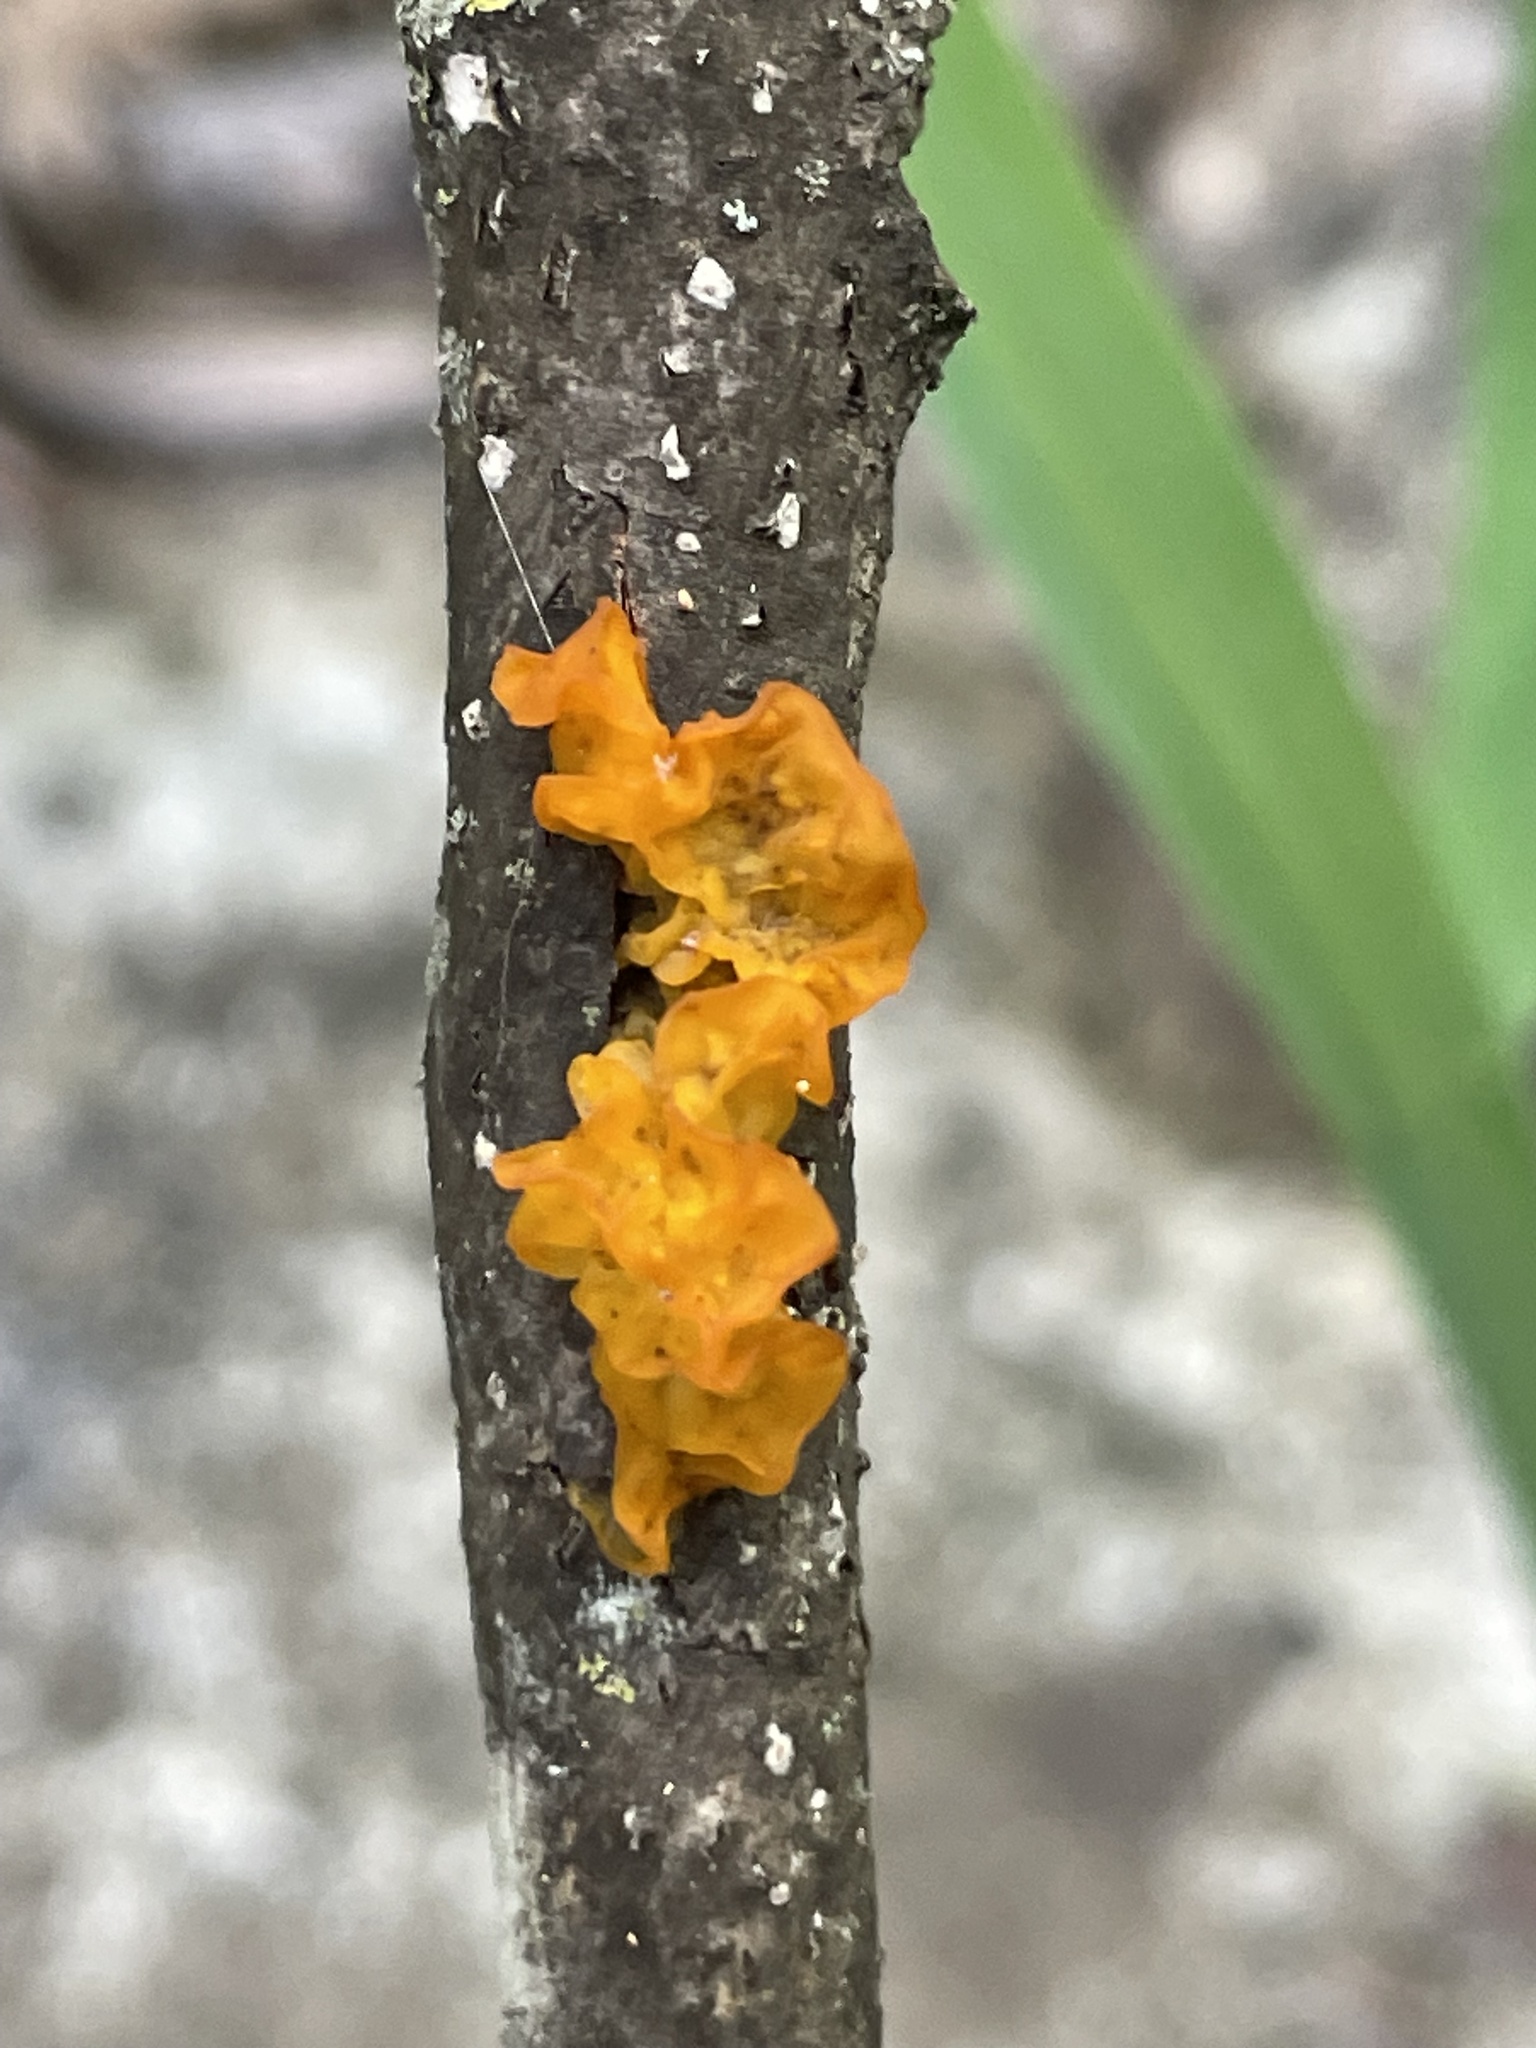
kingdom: Fungi
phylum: Basidiomycota
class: Tremellomycetes
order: Tremellales
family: Tremellaceae
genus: Tremella
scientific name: Tremella mesenterica
